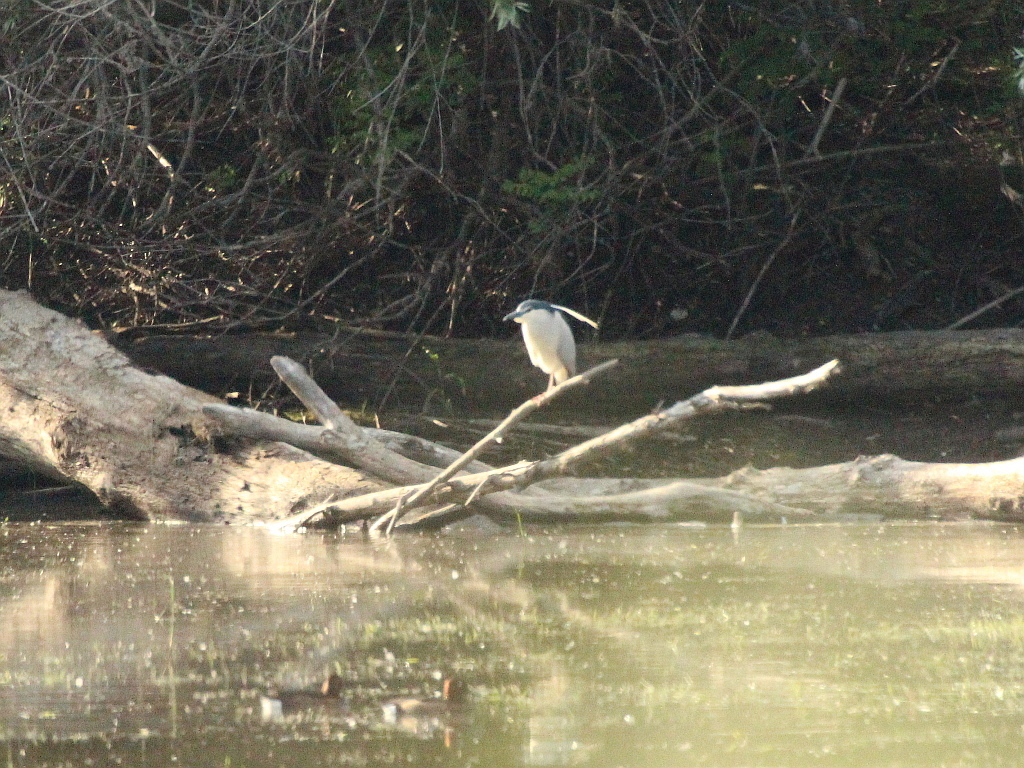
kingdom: Animalia
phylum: Chordata
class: Aves
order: Pelecaniformes
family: Ardeidae
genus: Nycticorax
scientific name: Nycticorax nycticorax
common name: Black-crowned night heron
